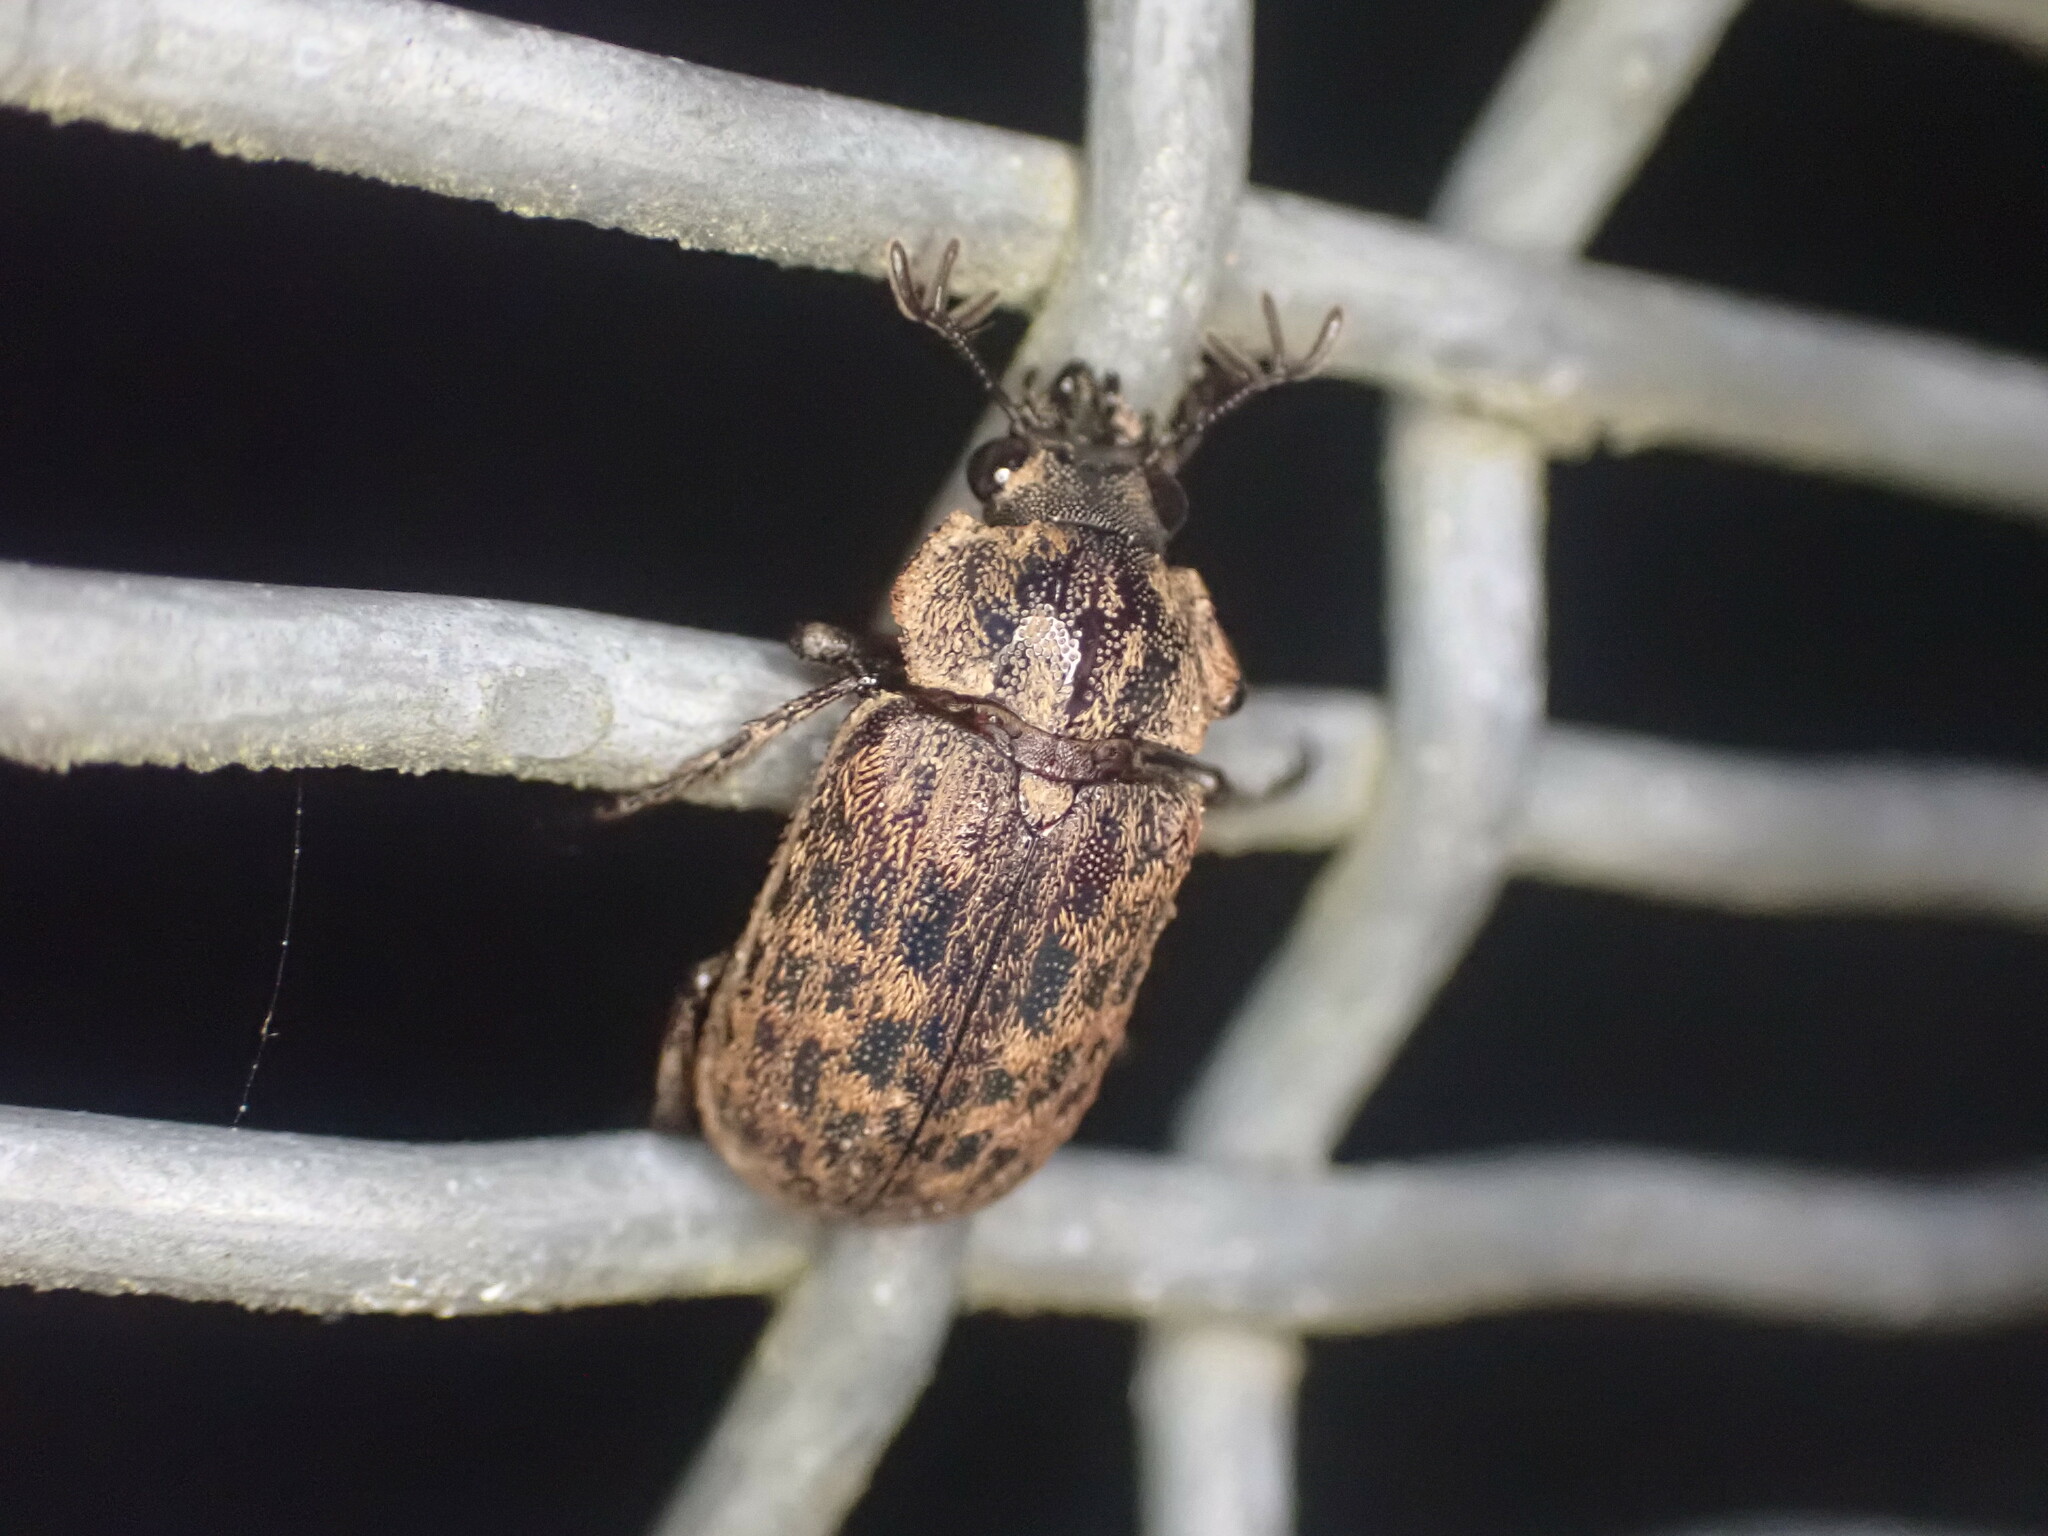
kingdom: Animalia
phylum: Arthropoda
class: Insecta
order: Coleoptera
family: Lucanidae
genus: Mitophyllus
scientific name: Mitophyllus parrianus
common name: Parry's stag beetle
